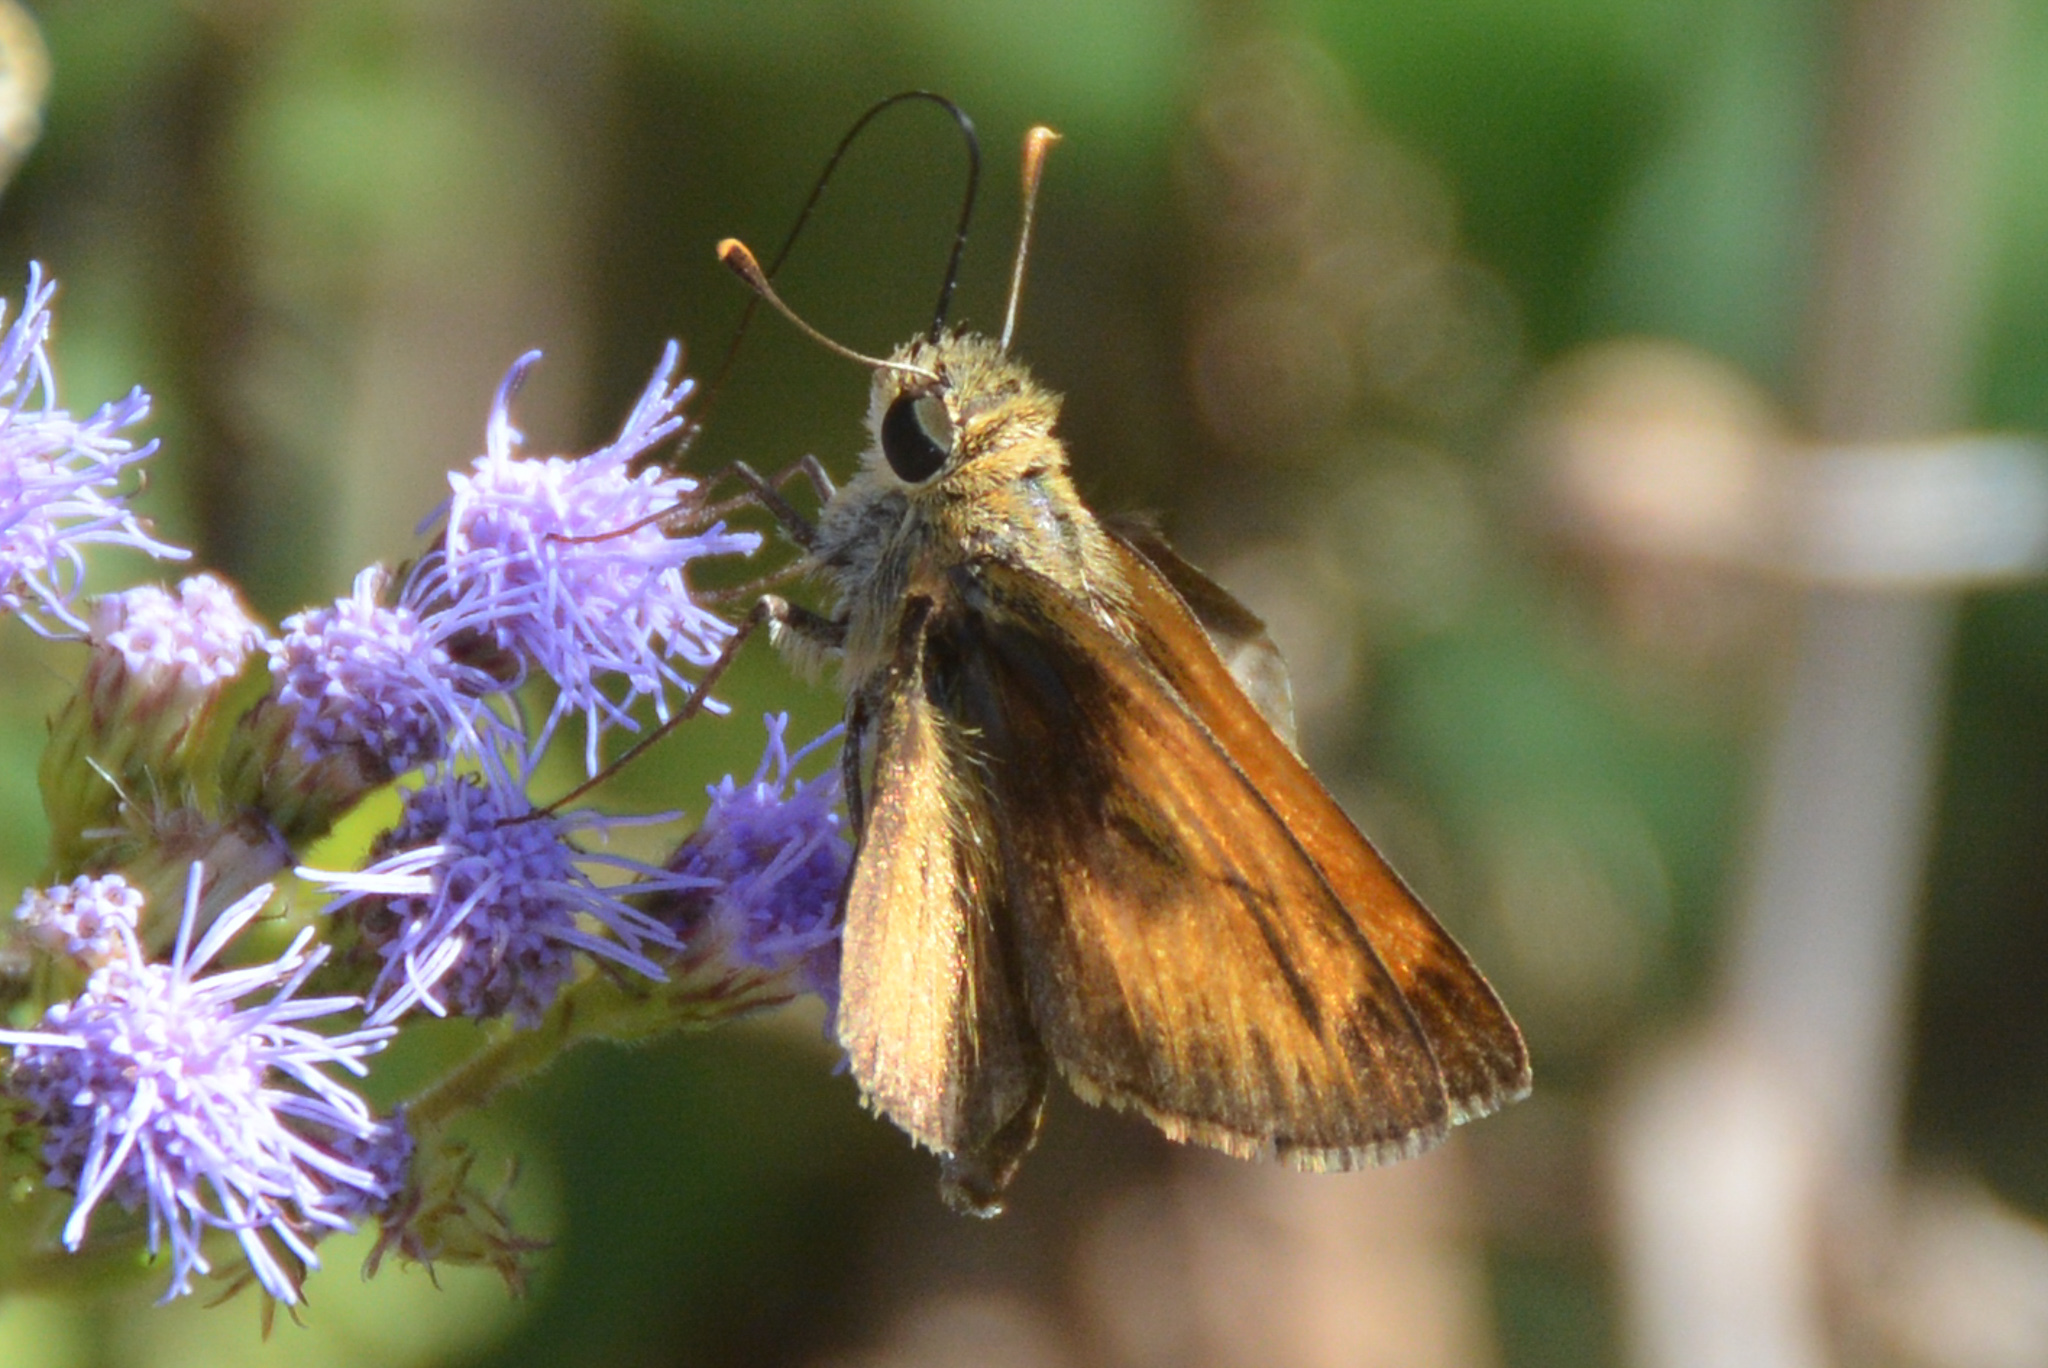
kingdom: Animalia
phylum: Arthropoda
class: Insecta
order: Lepidoptera
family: Hesperiidae
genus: Polites
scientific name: Polites vibex
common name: Whirlabout
